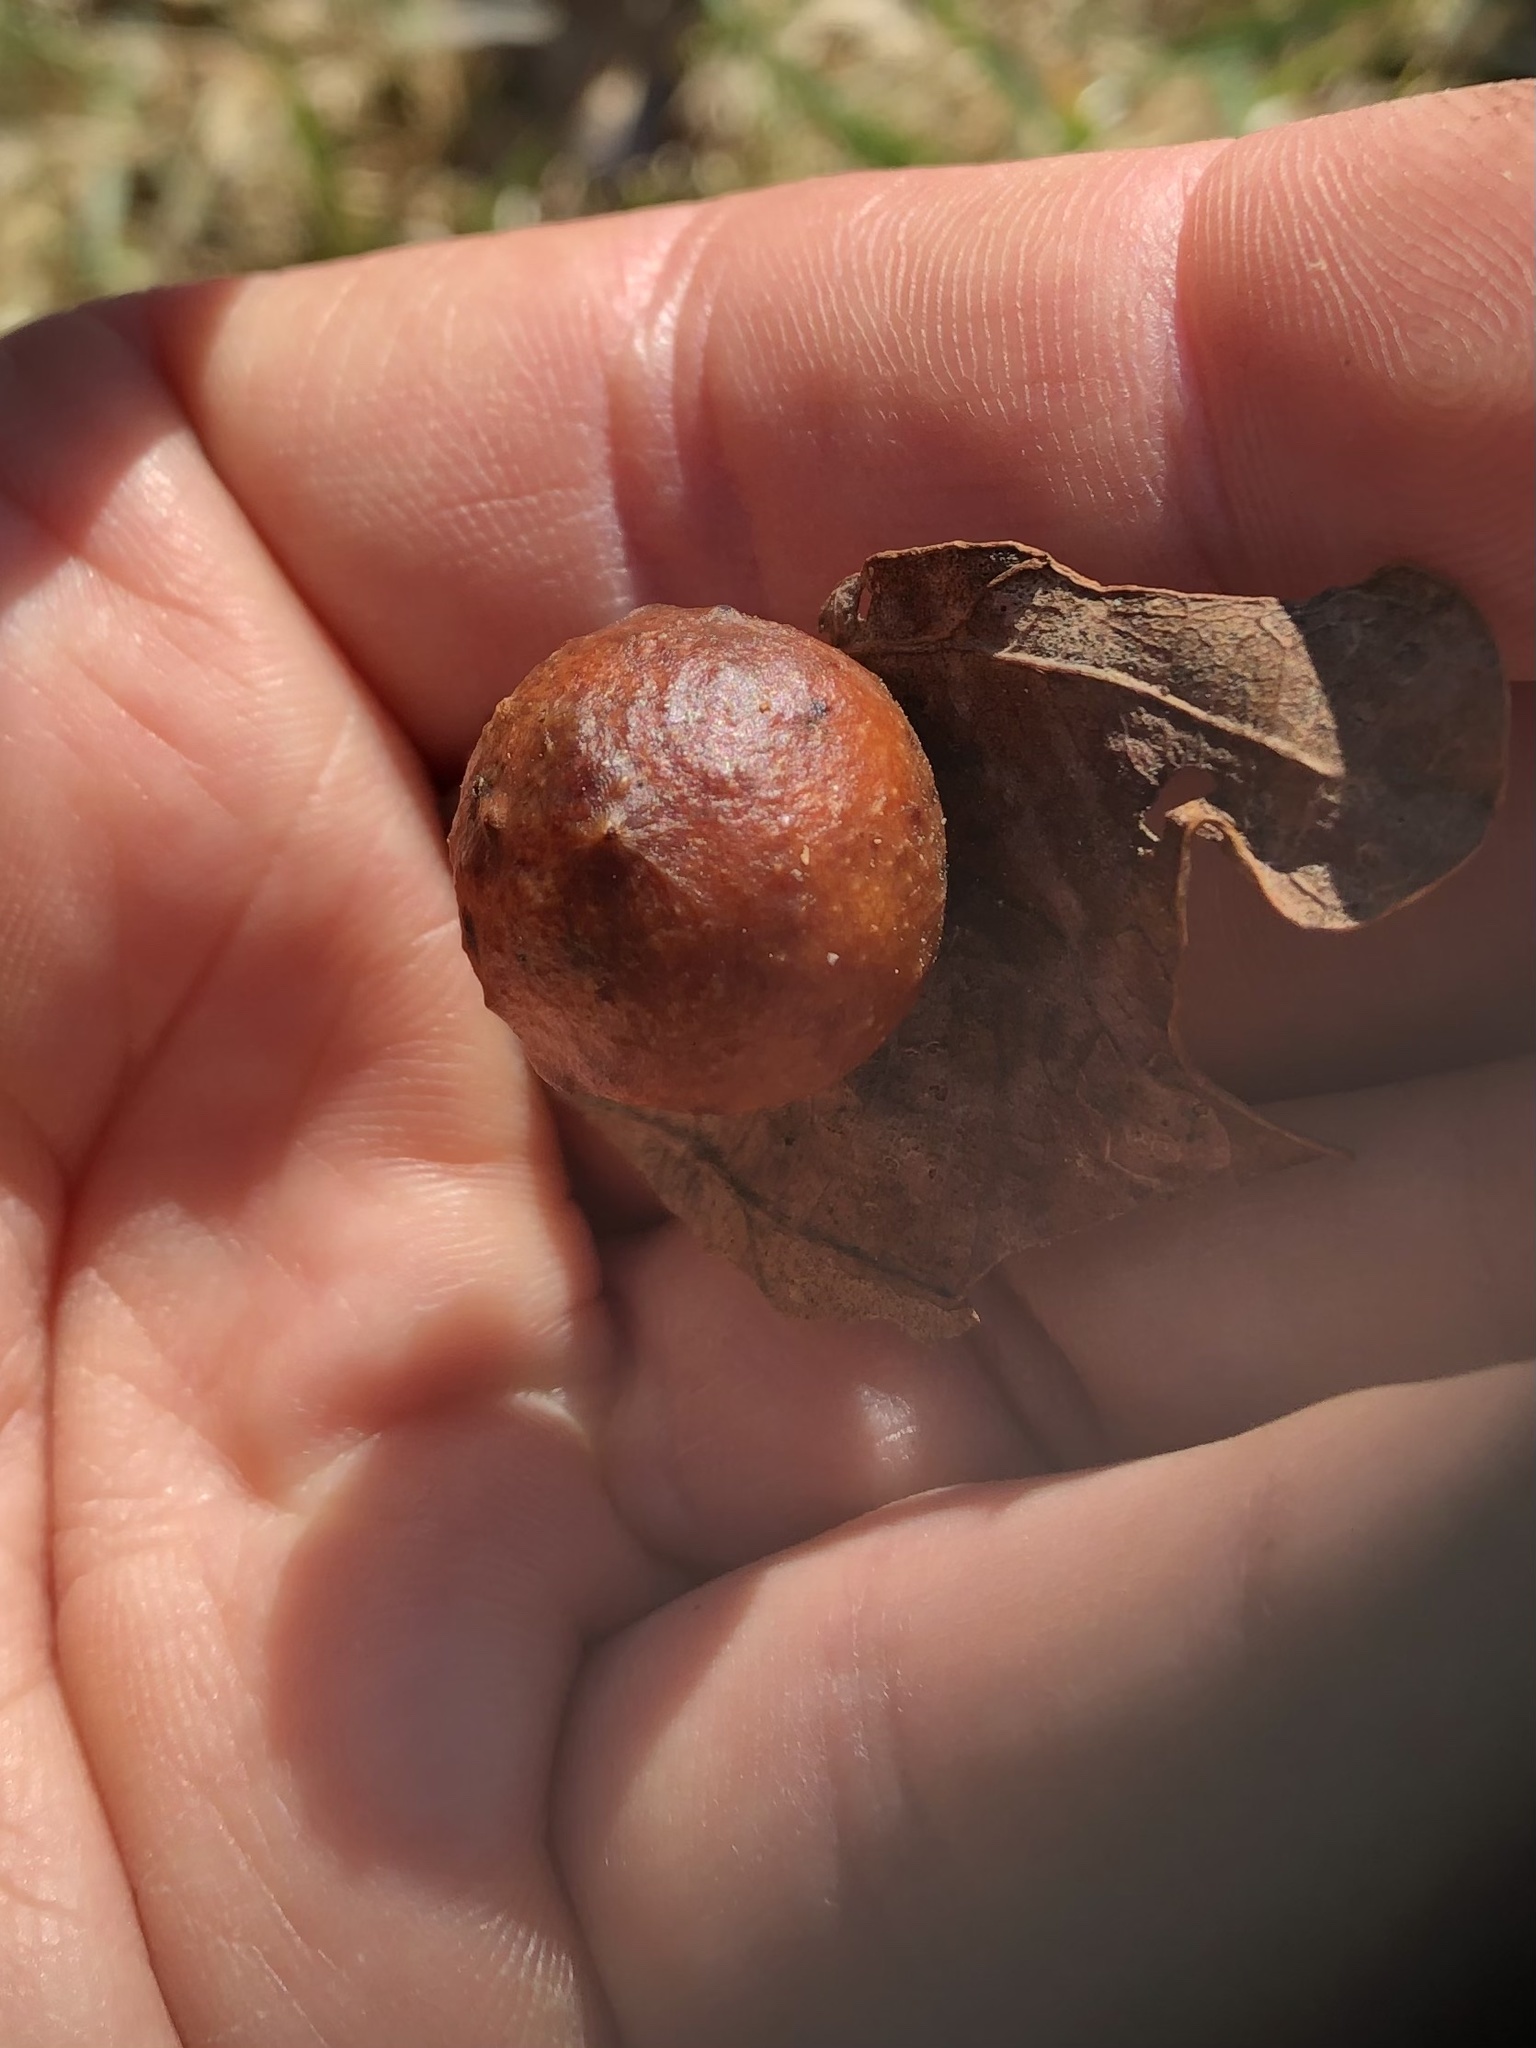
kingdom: Animalia
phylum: Arthropoda
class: Insecta
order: Hymenoptera
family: Cynipidae
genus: Cynips
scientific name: Cynips quercusfolii
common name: Cherry gall
